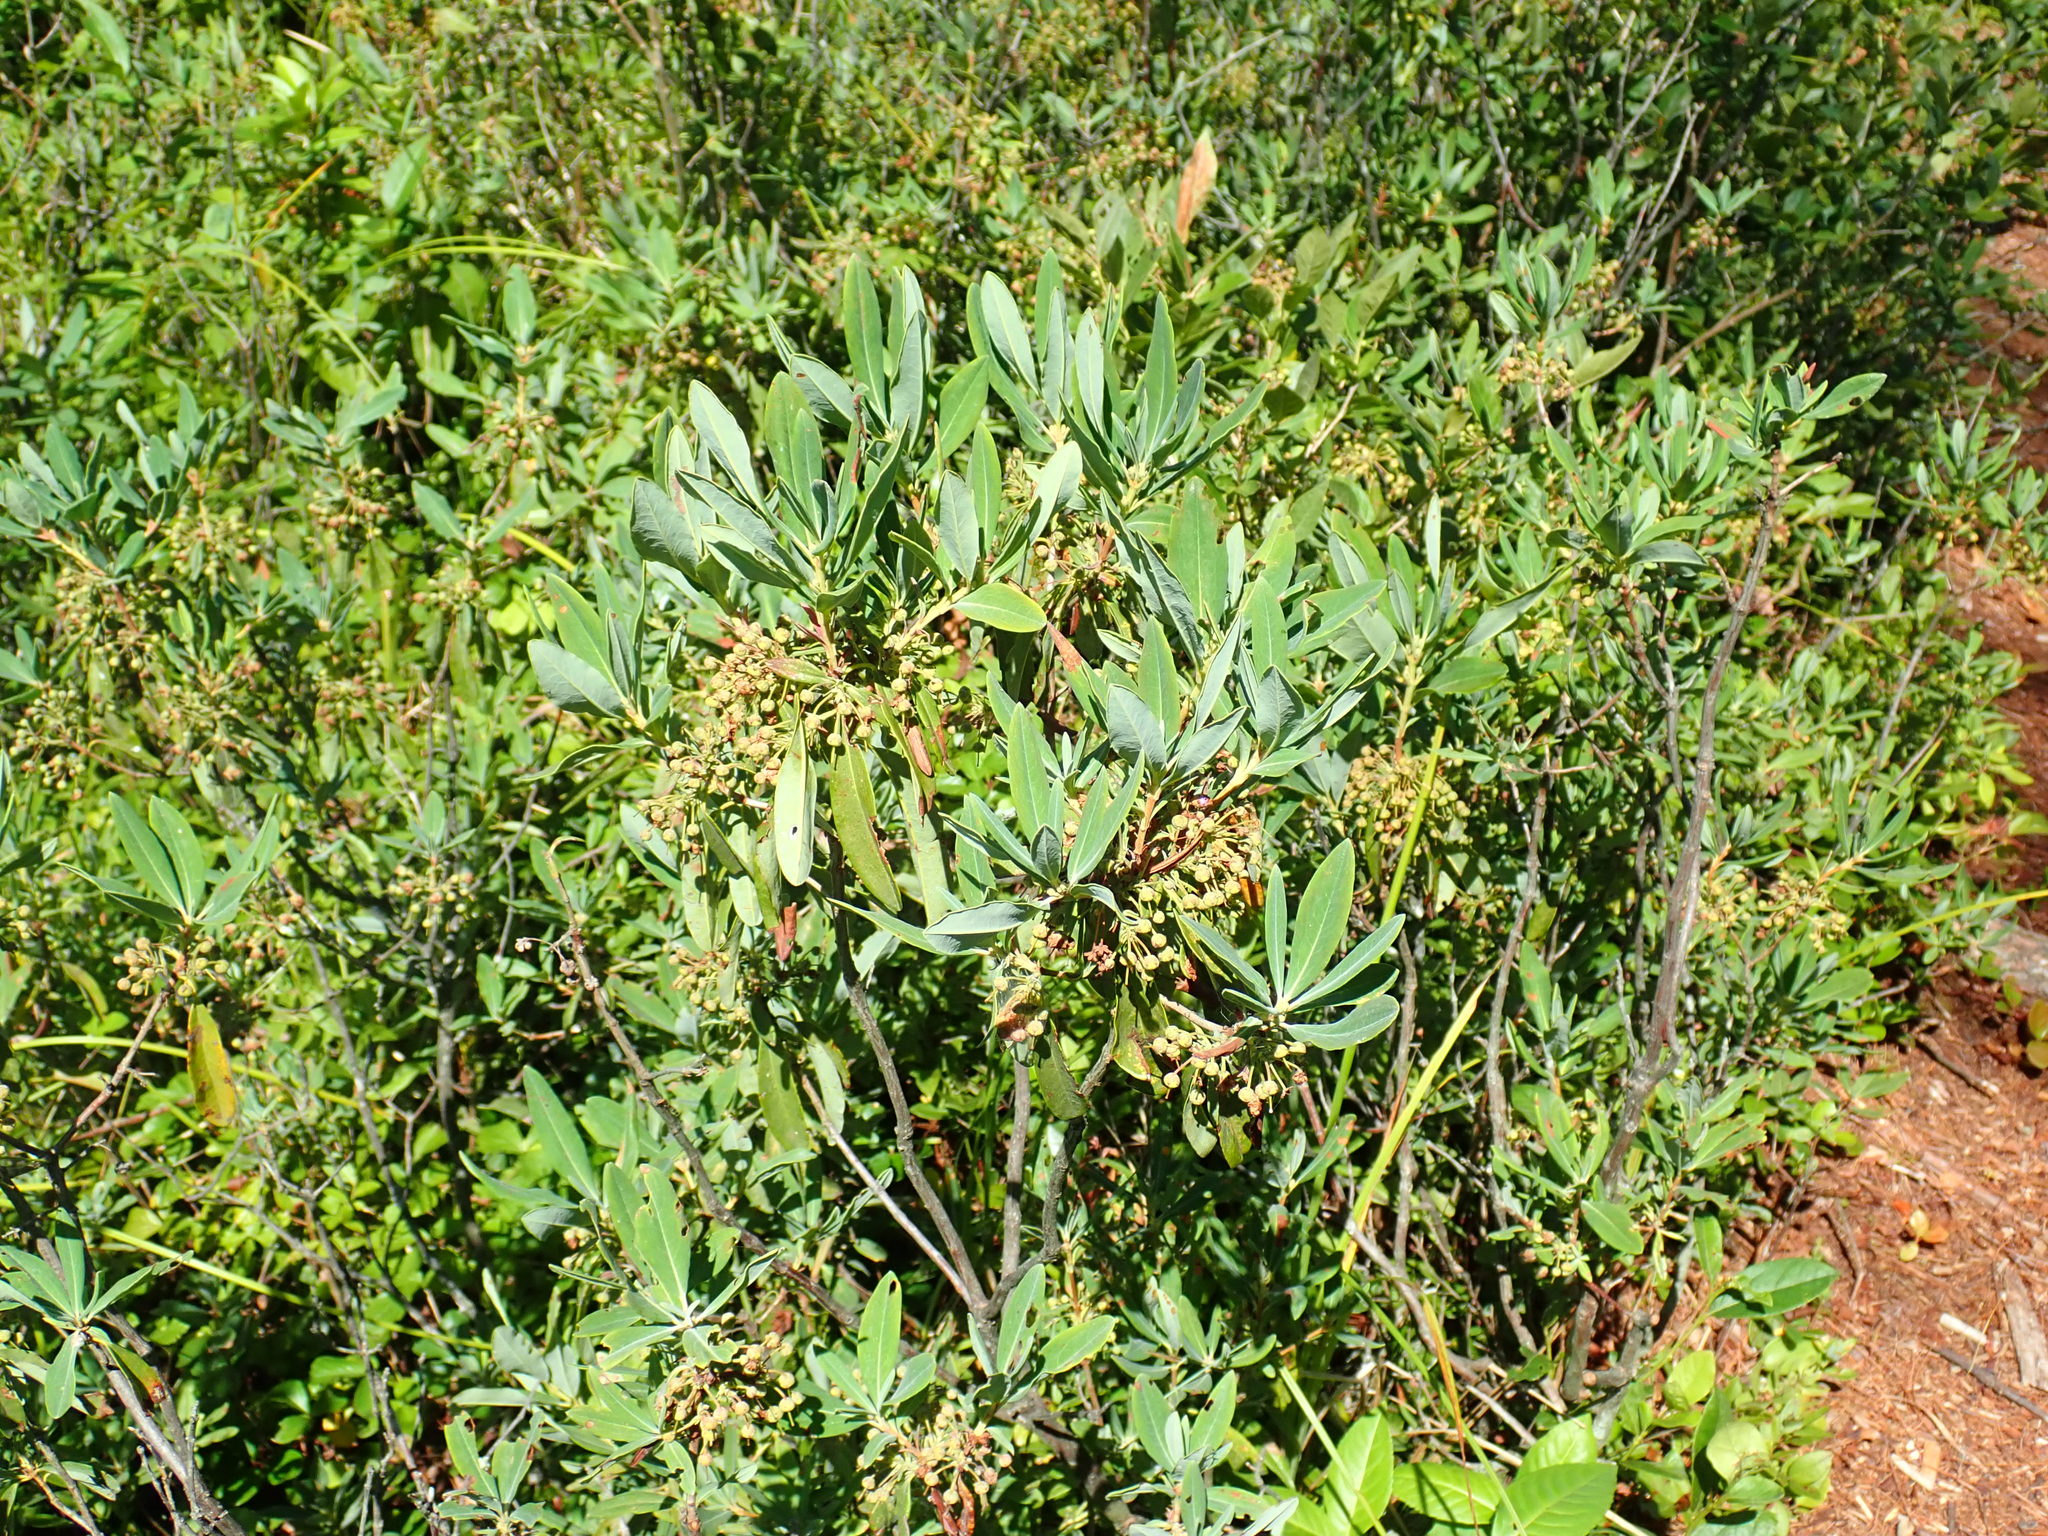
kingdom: Plantae
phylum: Tracheophyta
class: Magnoliopsida
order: Ericales
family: Ericaceae
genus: Kalmia
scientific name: Kalmia angustifolia
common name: Sheep-laurel
